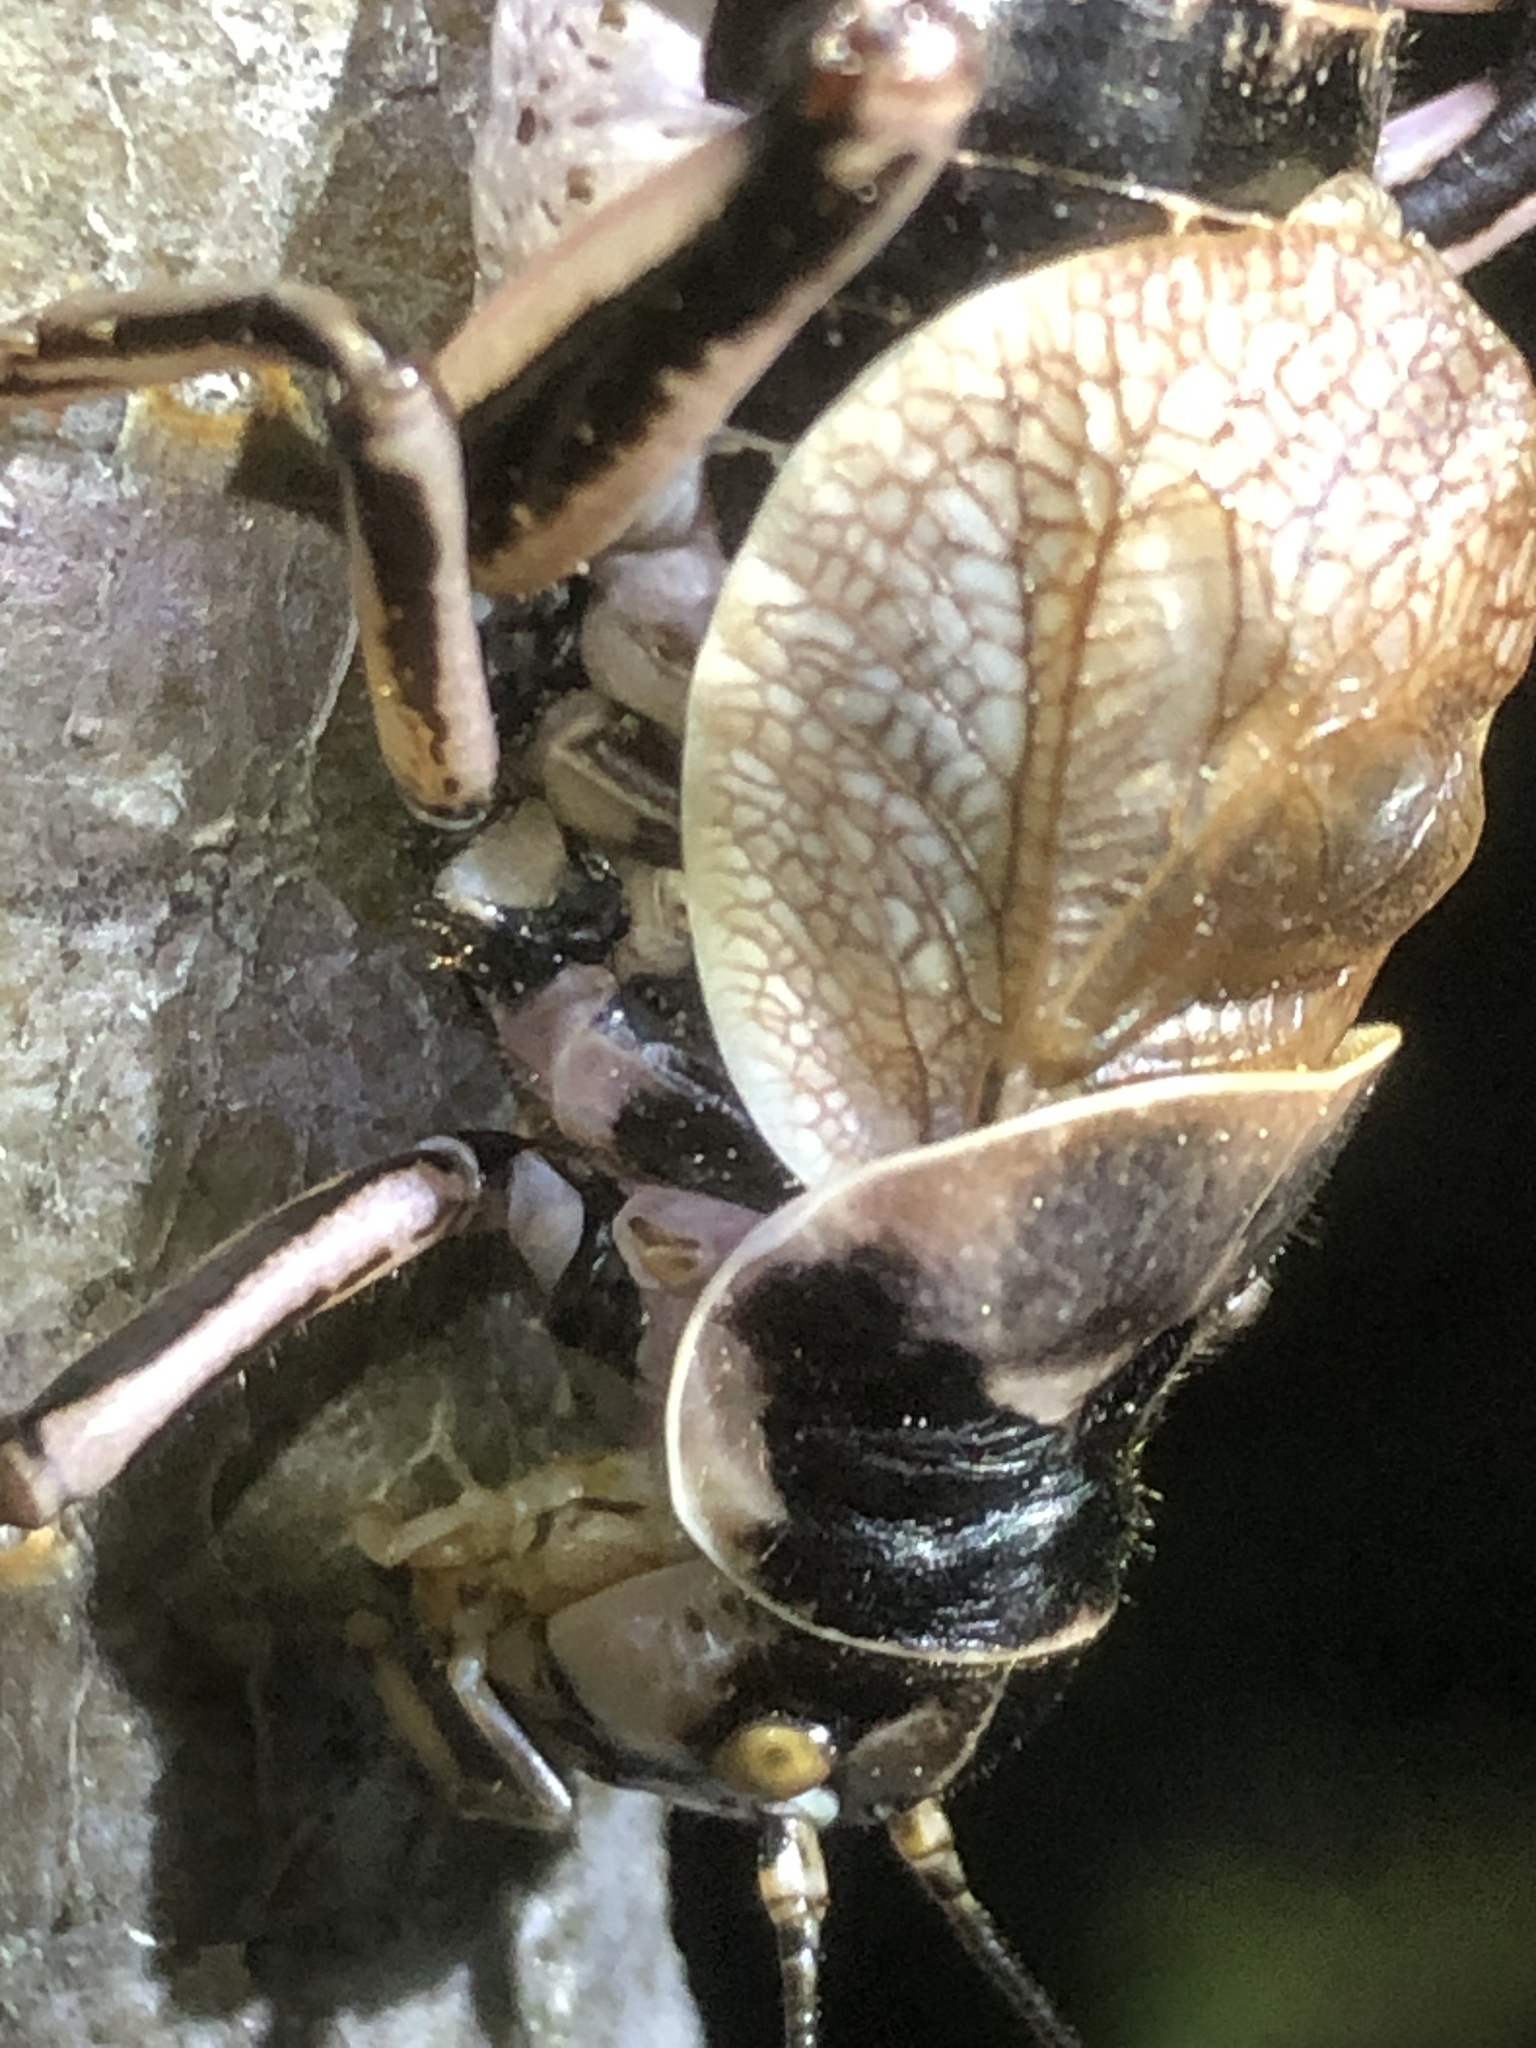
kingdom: Animalia
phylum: Arthropoda
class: Insecta
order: Orthoptera
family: Prophalangopsidae
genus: Cyphoderris
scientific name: Cyphoderris monstrosa
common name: Great grig
